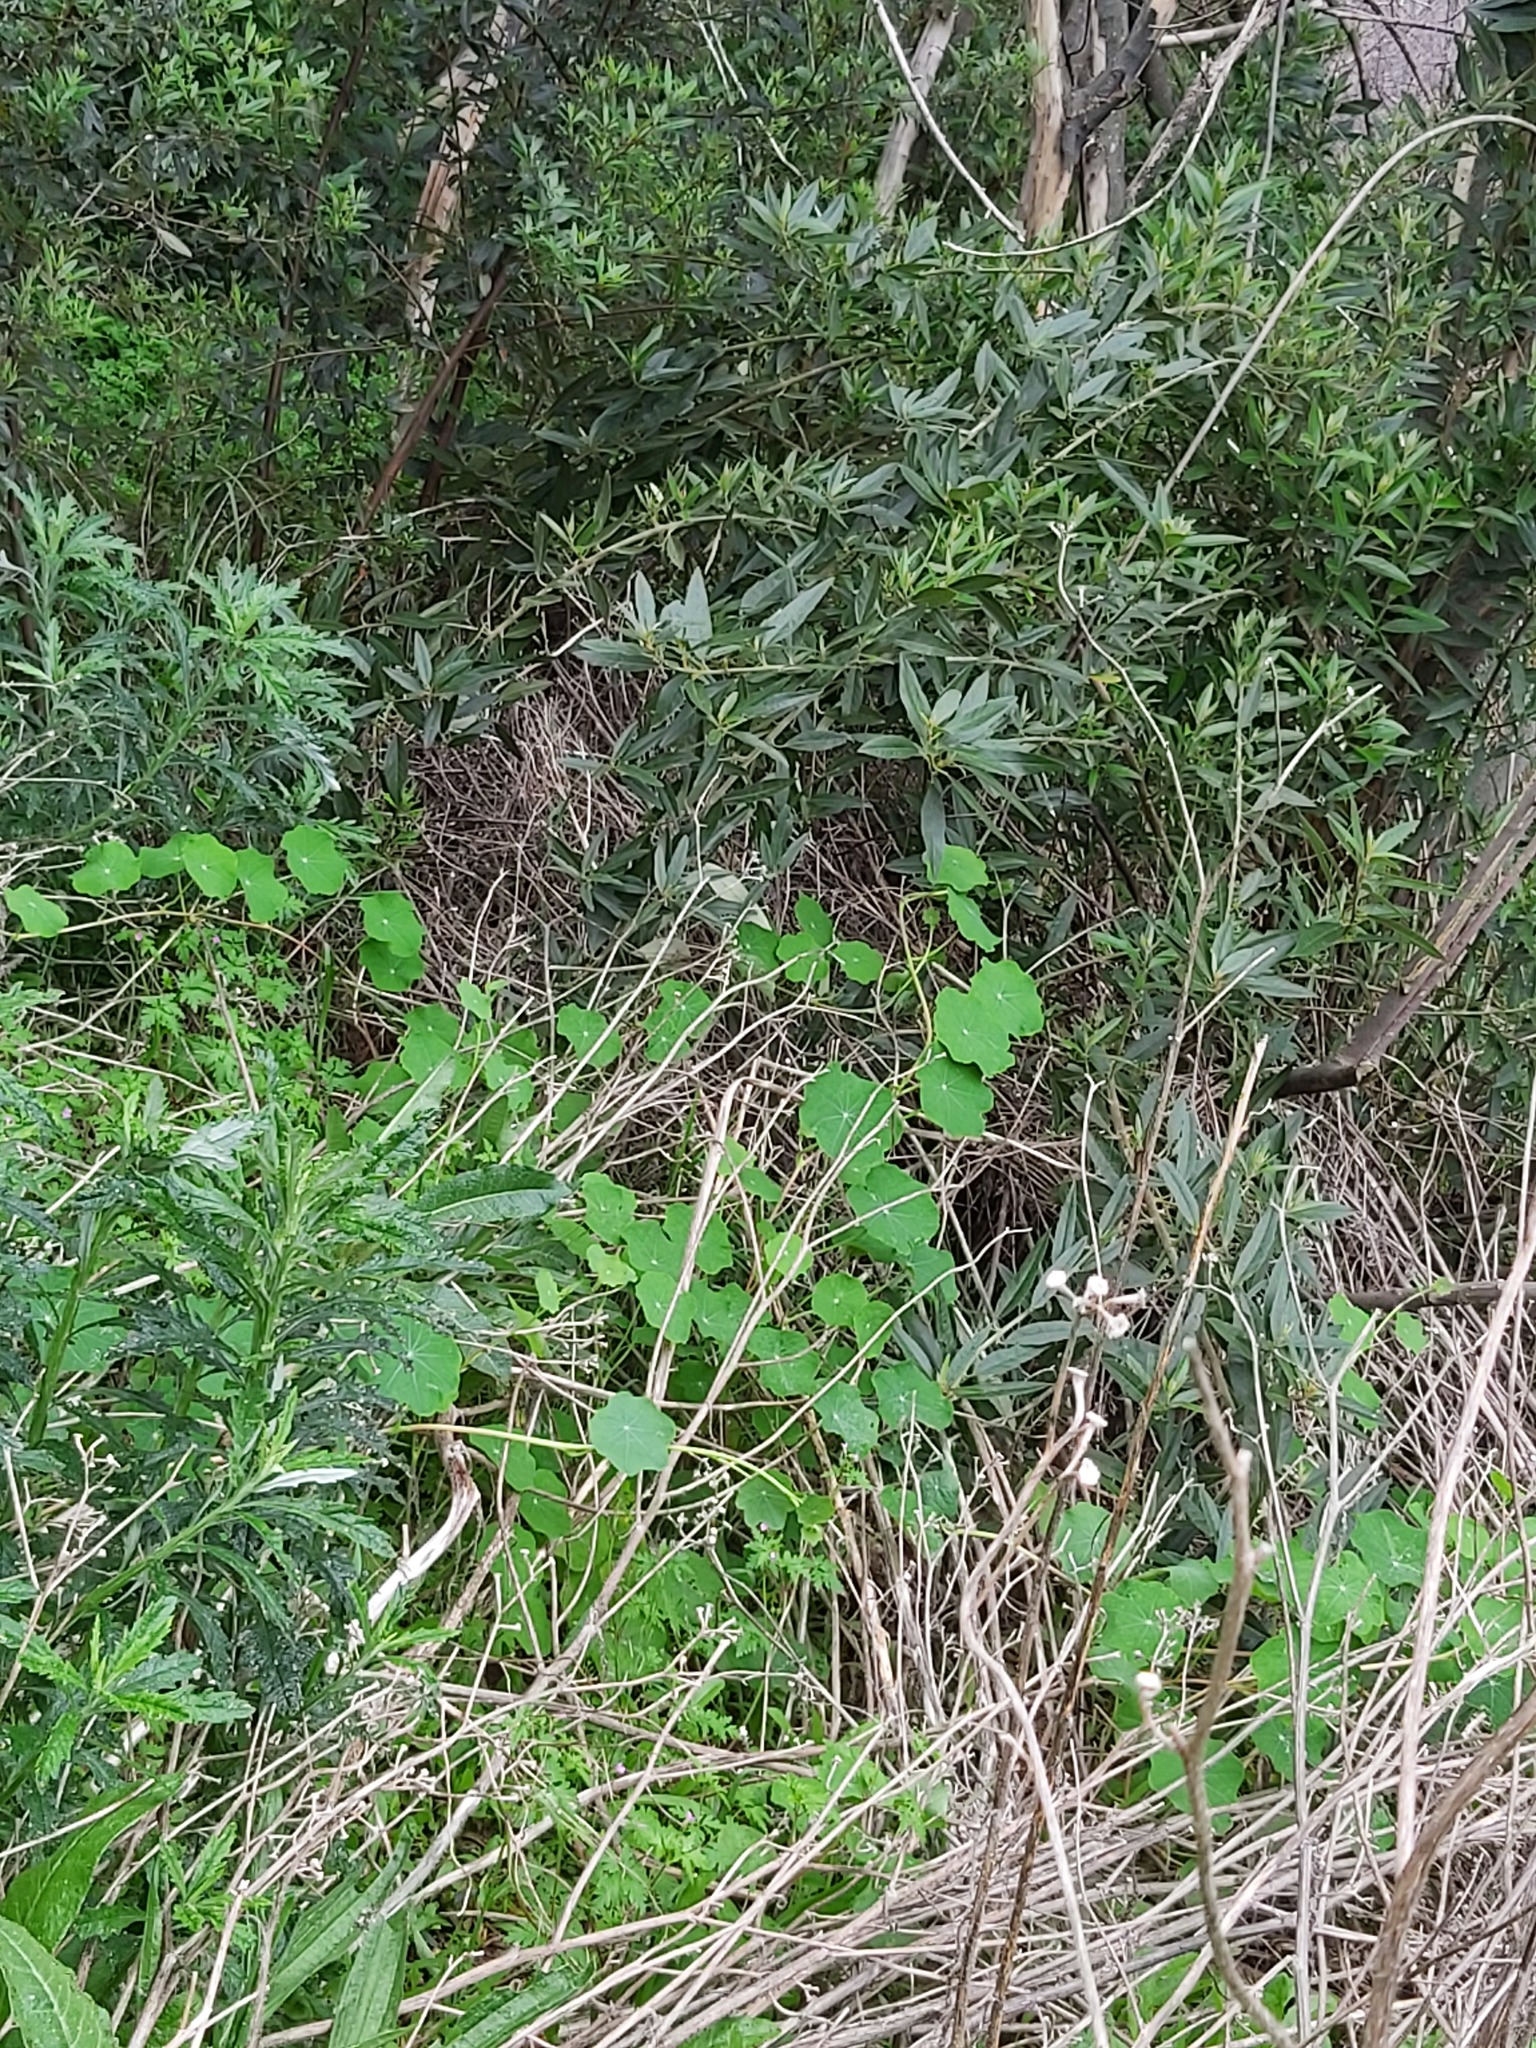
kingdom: Plantae
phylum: Tracheophyta
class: Magnoliopsida
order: Brassicales
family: Tropaeolaceae
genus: Tropaeolum
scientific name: Tropaeolum majus
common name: Nasturtium
